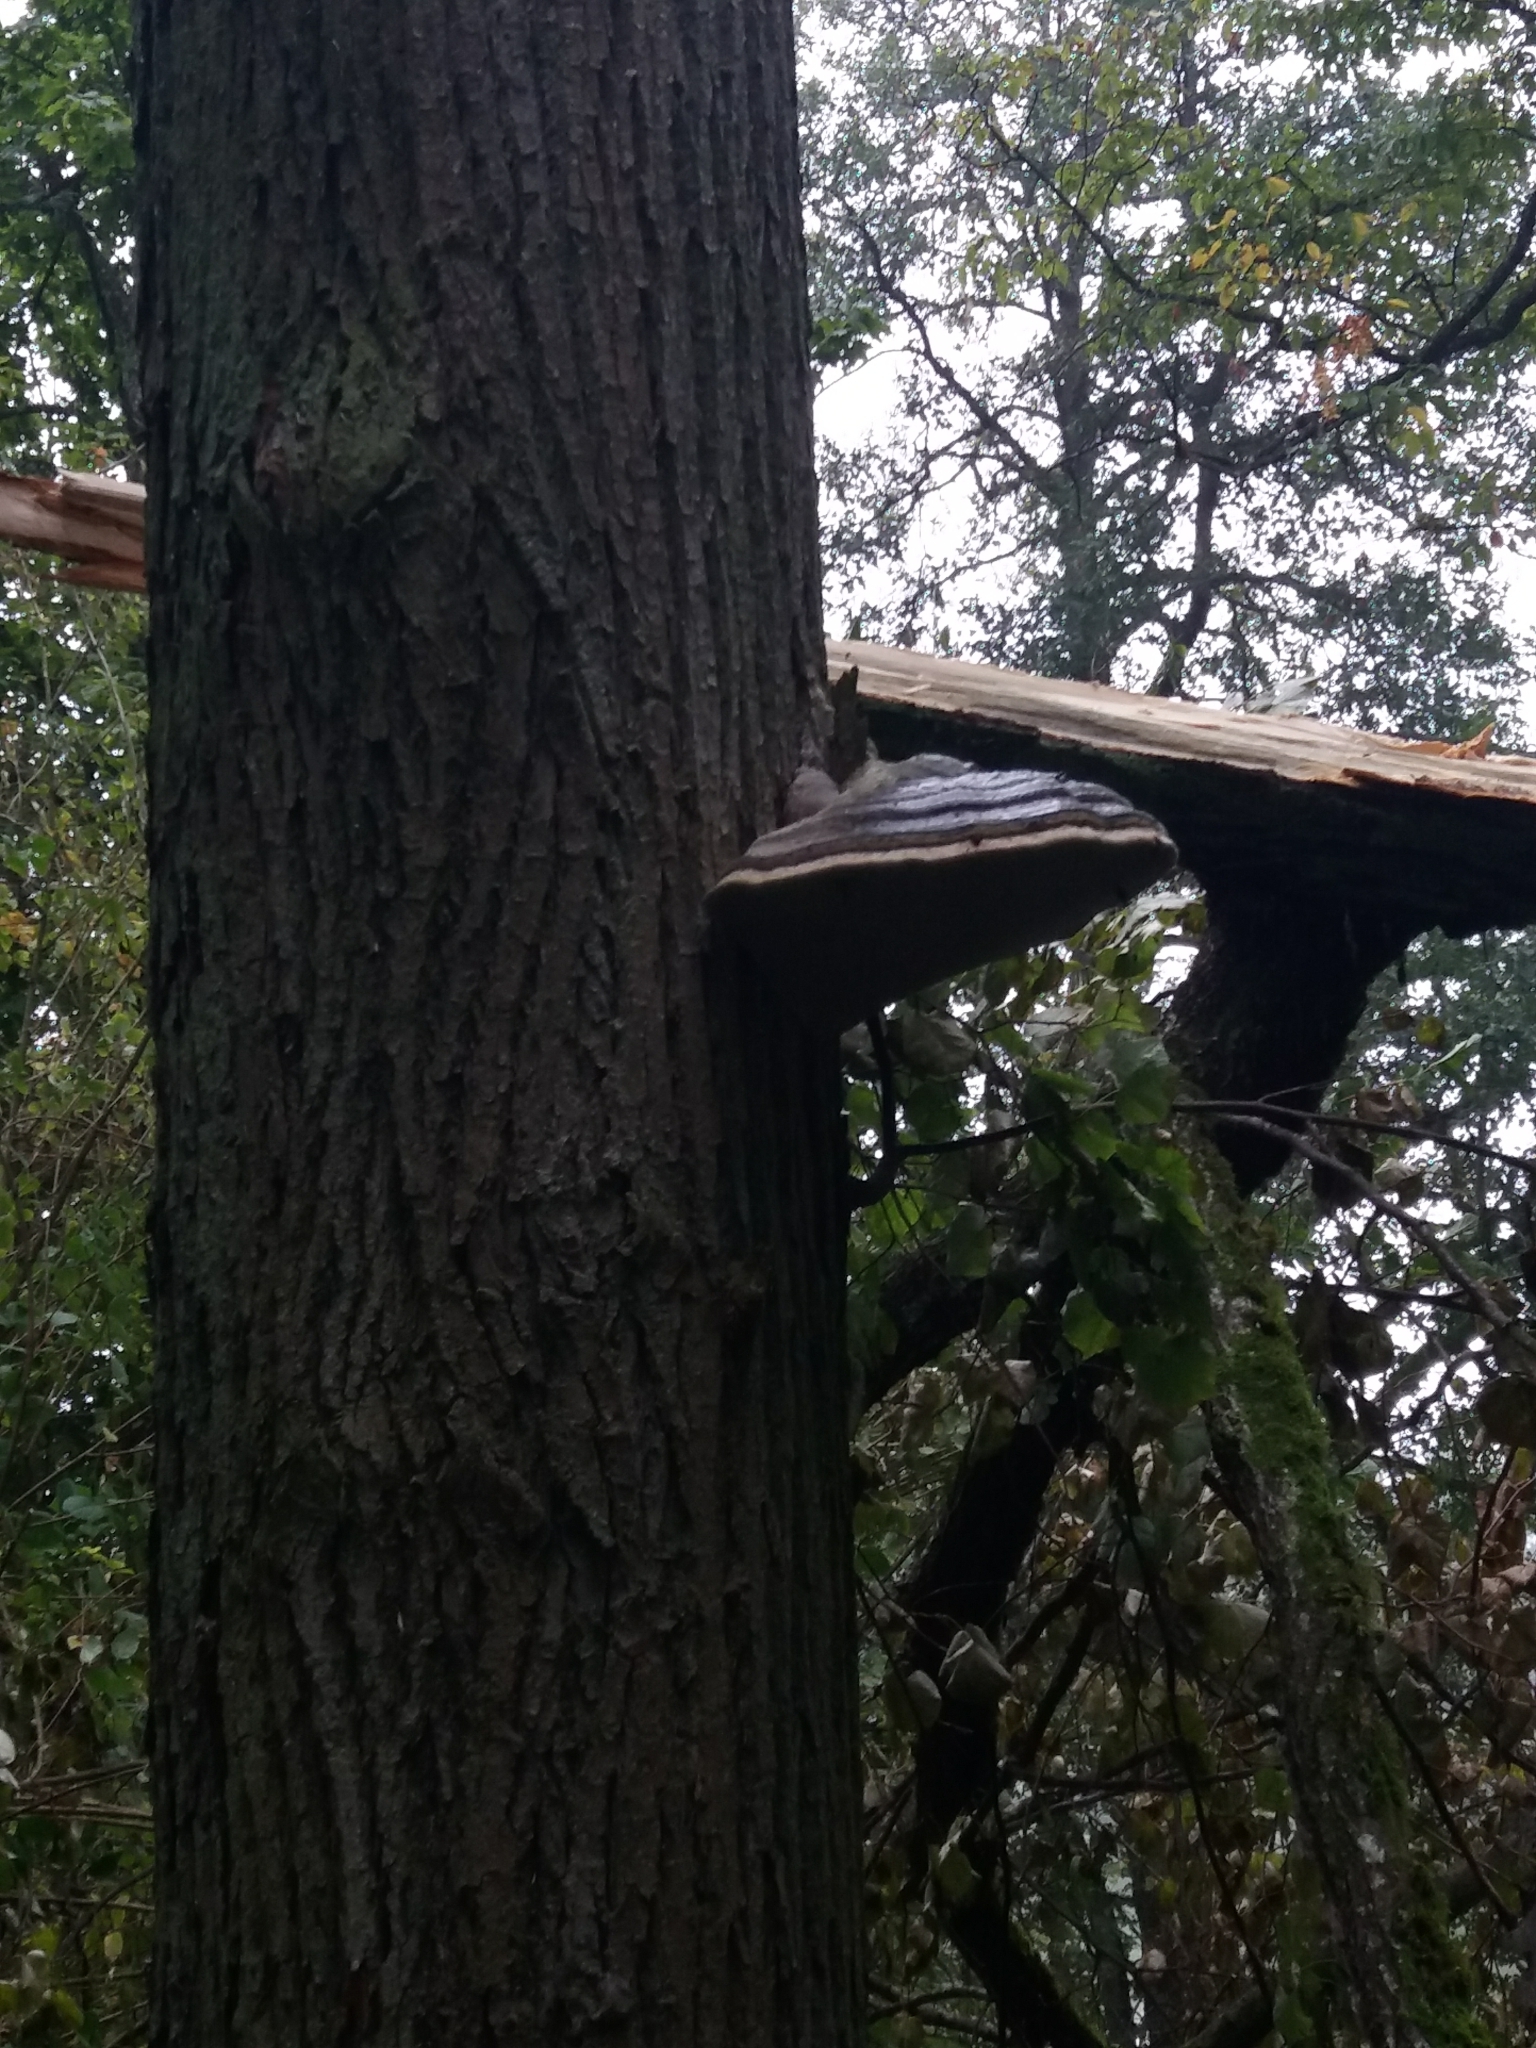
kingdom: Fungi
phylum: Basidiomycota
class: Agaricomycetes
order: Polyporales
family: Polyporaceae
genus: Fomes
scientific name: Fomes fomentarius
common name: Hoof fungus
